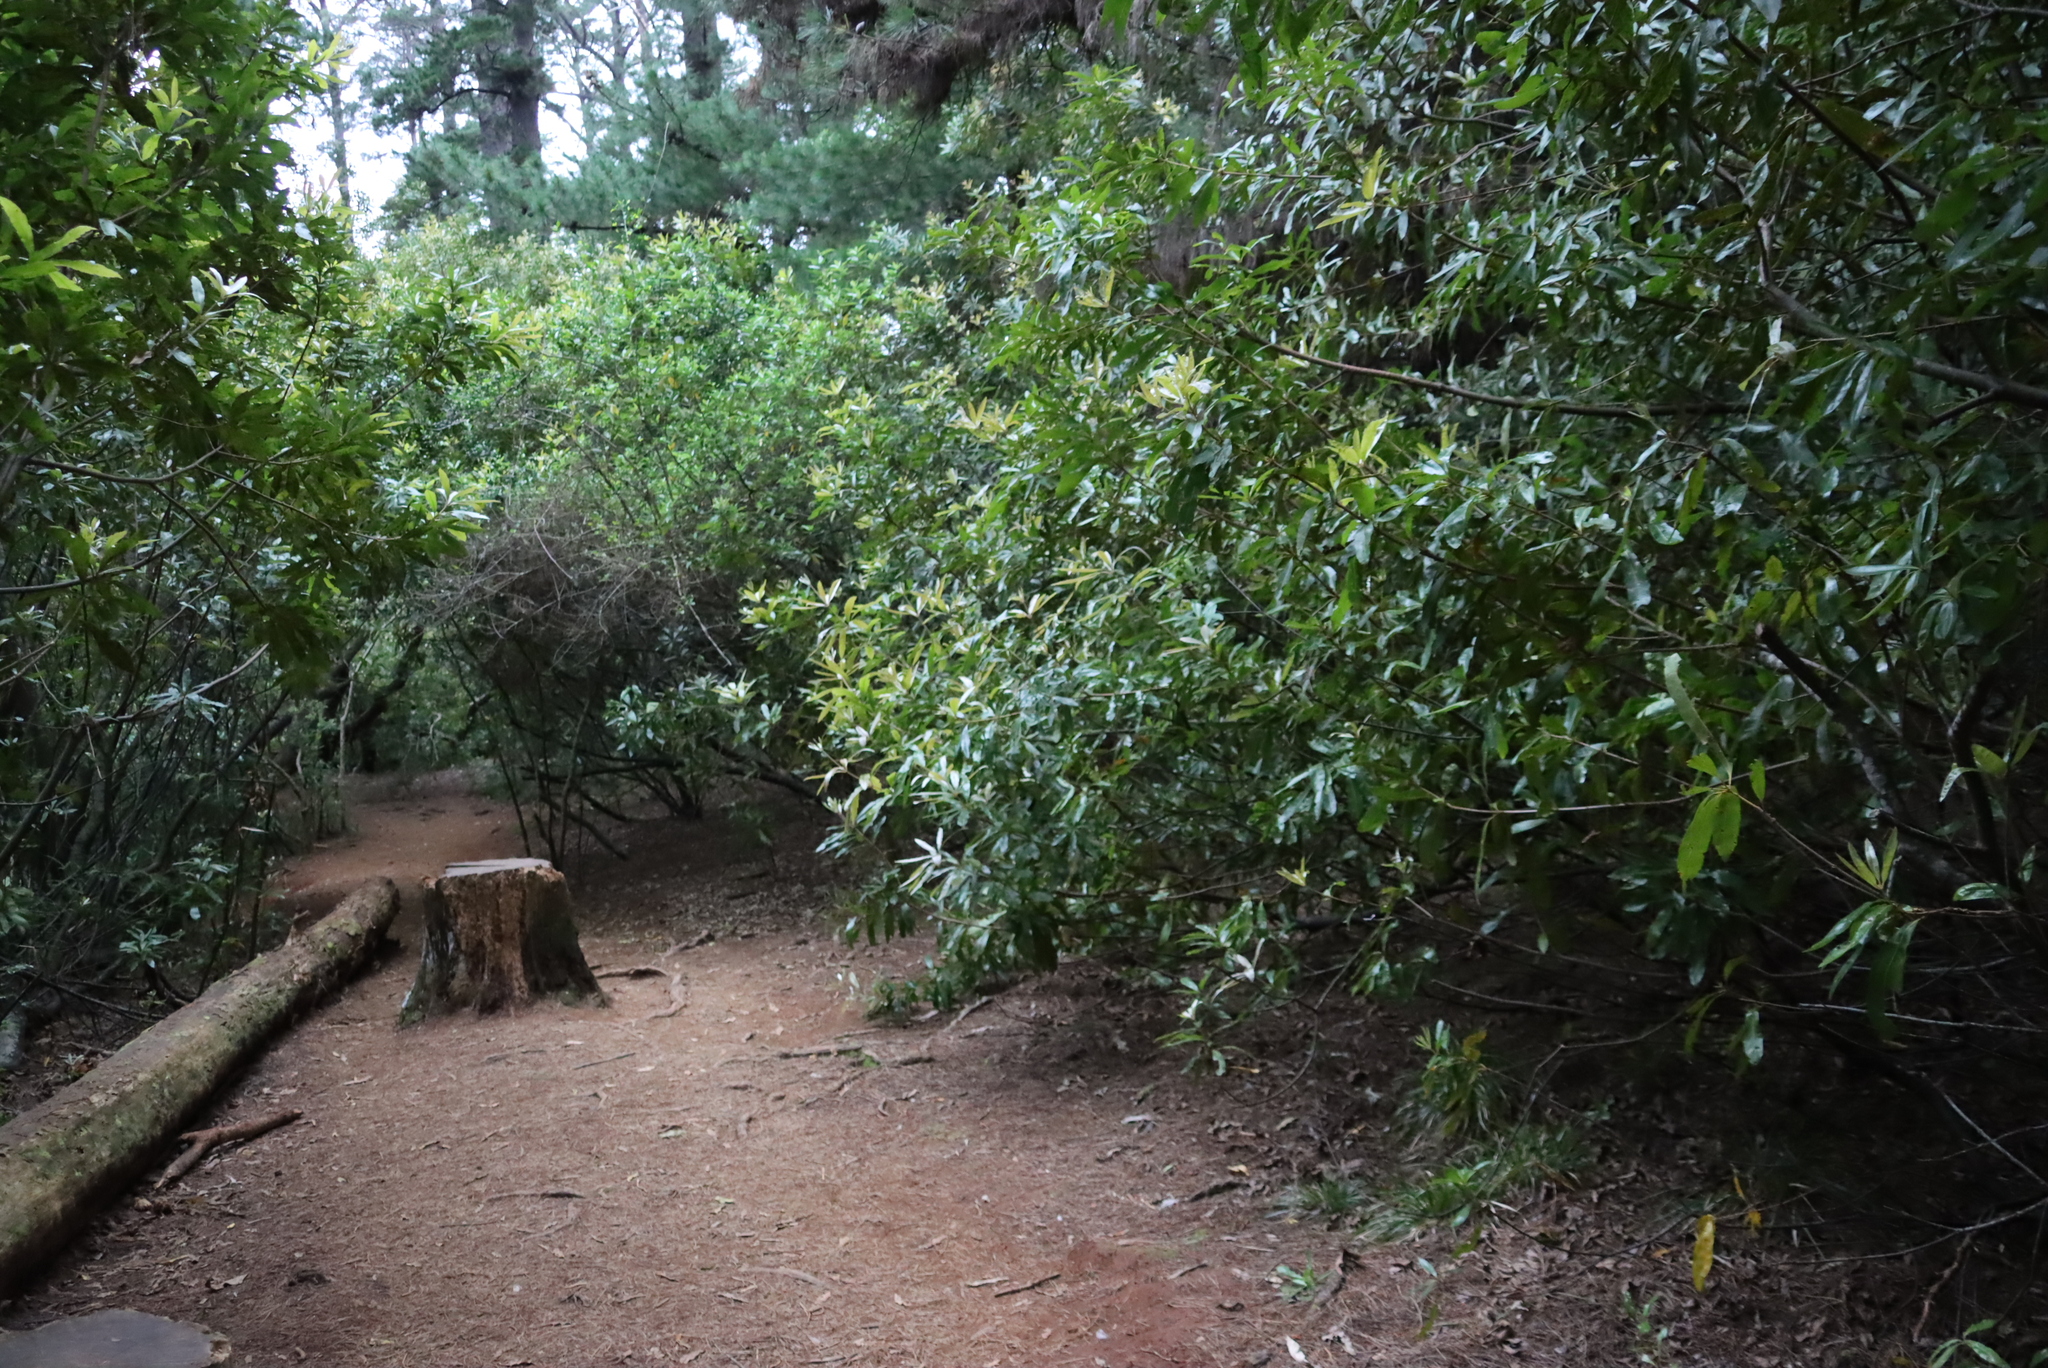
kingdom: Plantae
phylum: Tracheophyta
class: Magnoliopsida
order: Proteales
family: Proteaceae
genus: Brabejum
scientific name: Brabejum stellatifolium
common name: Wild almond
